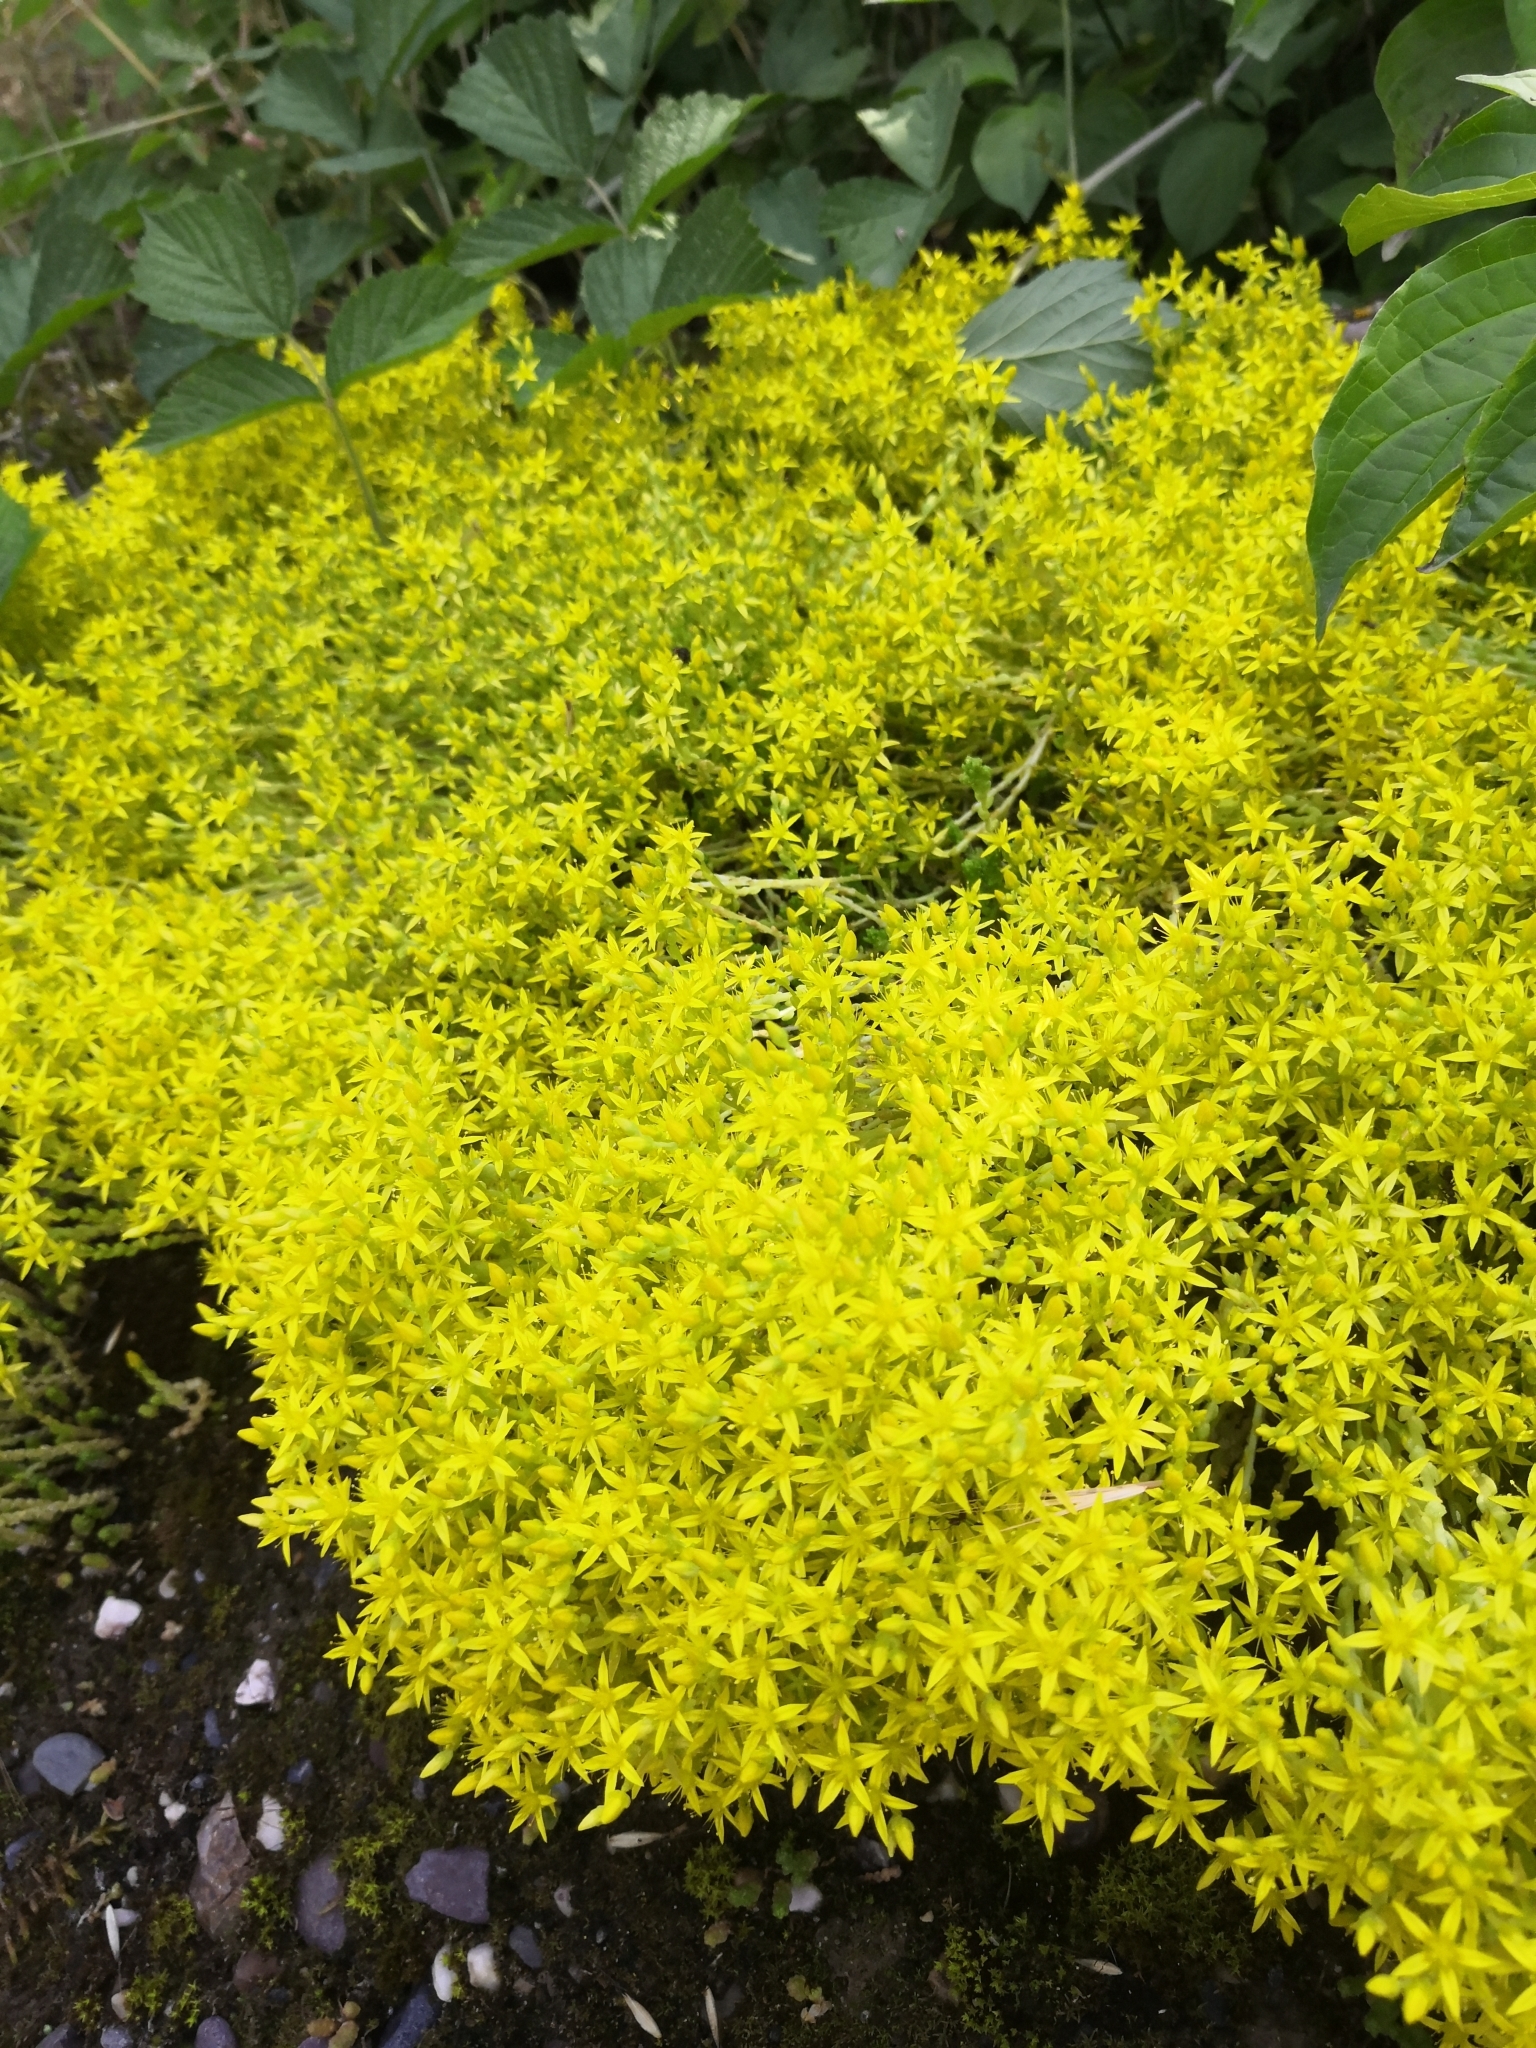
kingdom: Plantae
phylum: Tracheophyta
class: Magnoliopsida
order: Saxifragales
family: Crassulaceae
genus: Sedum
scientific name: Sedum acre
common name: Biting stonecrop
